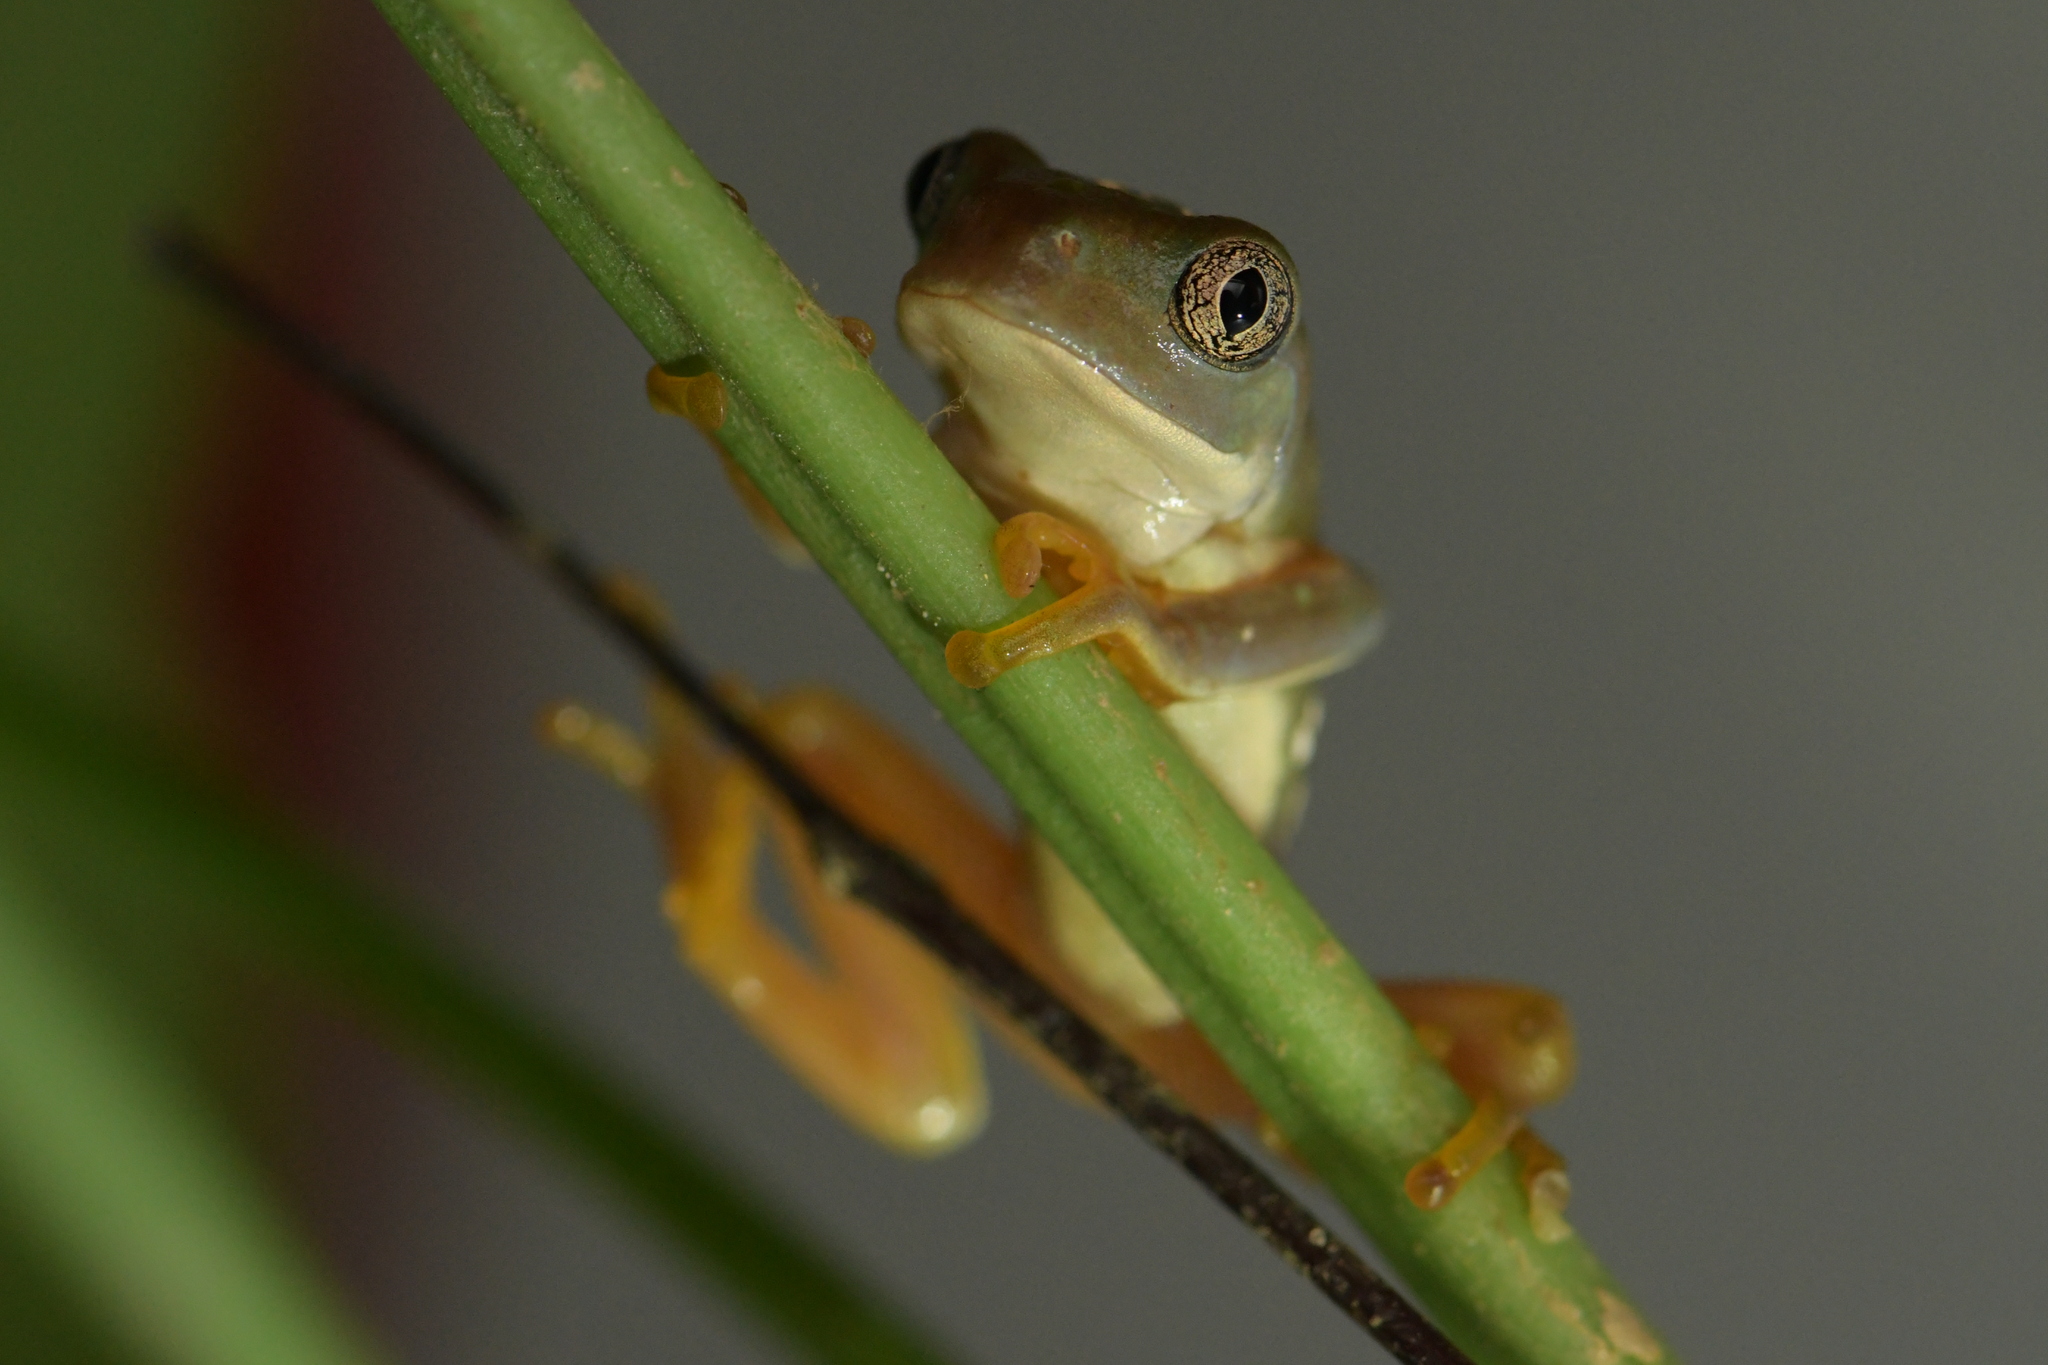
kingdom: Animalia
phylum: Chordata
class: Amphibia
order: Anura
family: Phyllomedusidae
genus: Agalychnis
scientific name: Agalychnis dacnicolor
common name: Mexican giant tree frog
